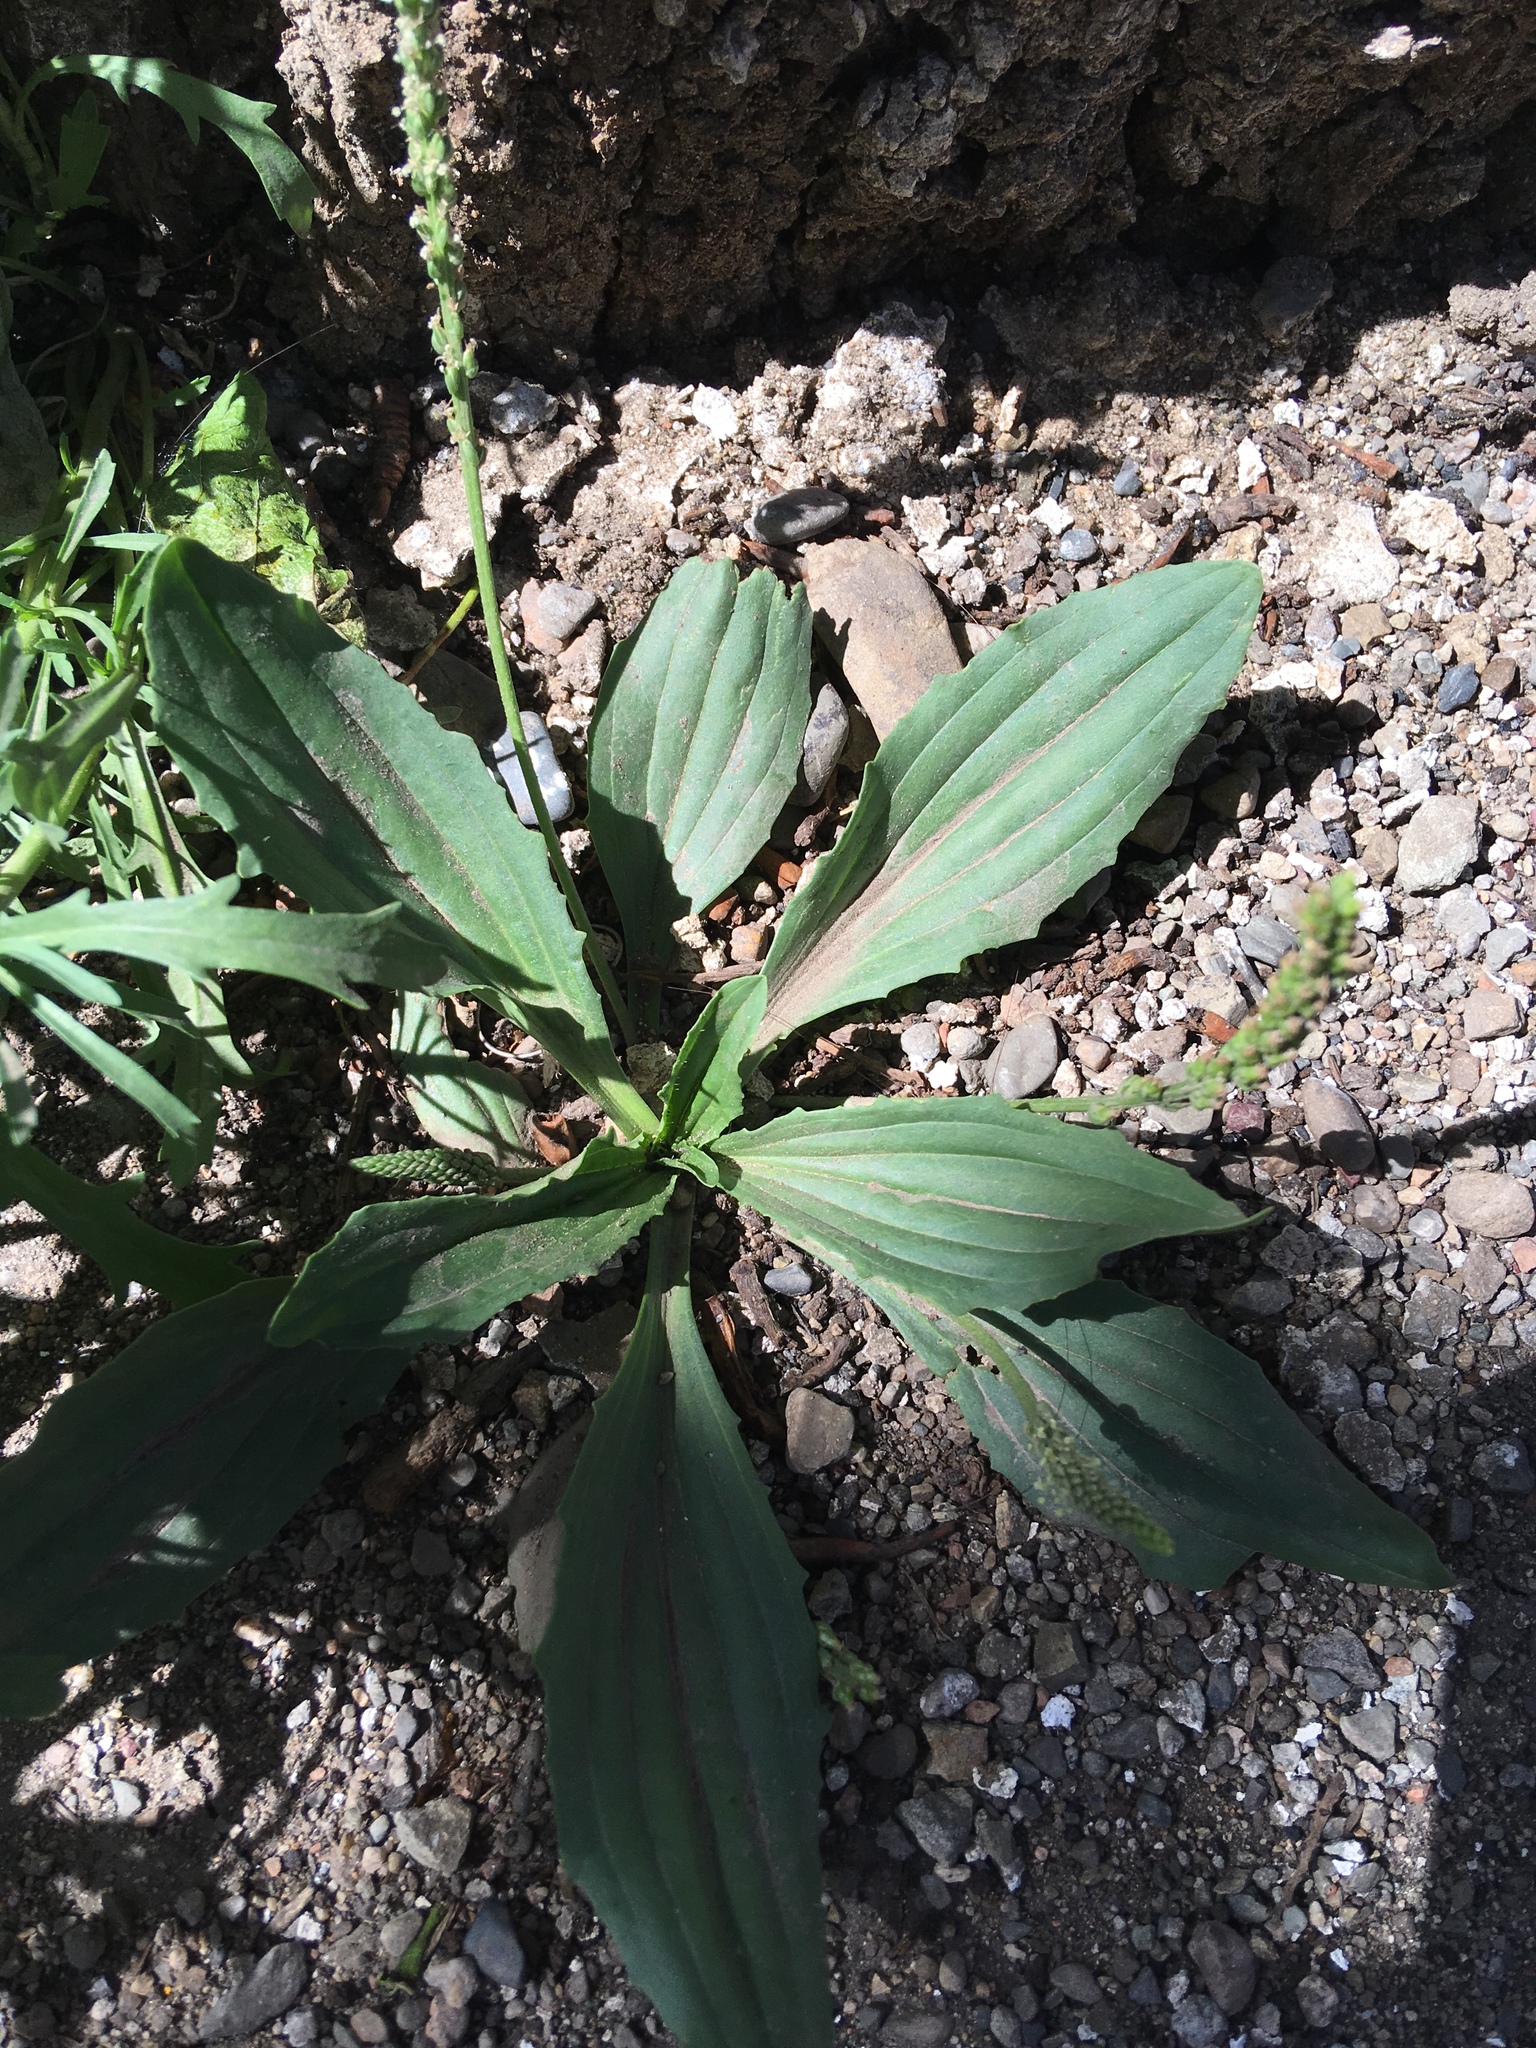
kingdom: Plantae
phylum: Tracheophyta
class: Magnoliopsida
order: Lamiales
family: Plantaginaceae
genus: Plantago
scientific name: Plantago depressa
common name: Depressed plantain
